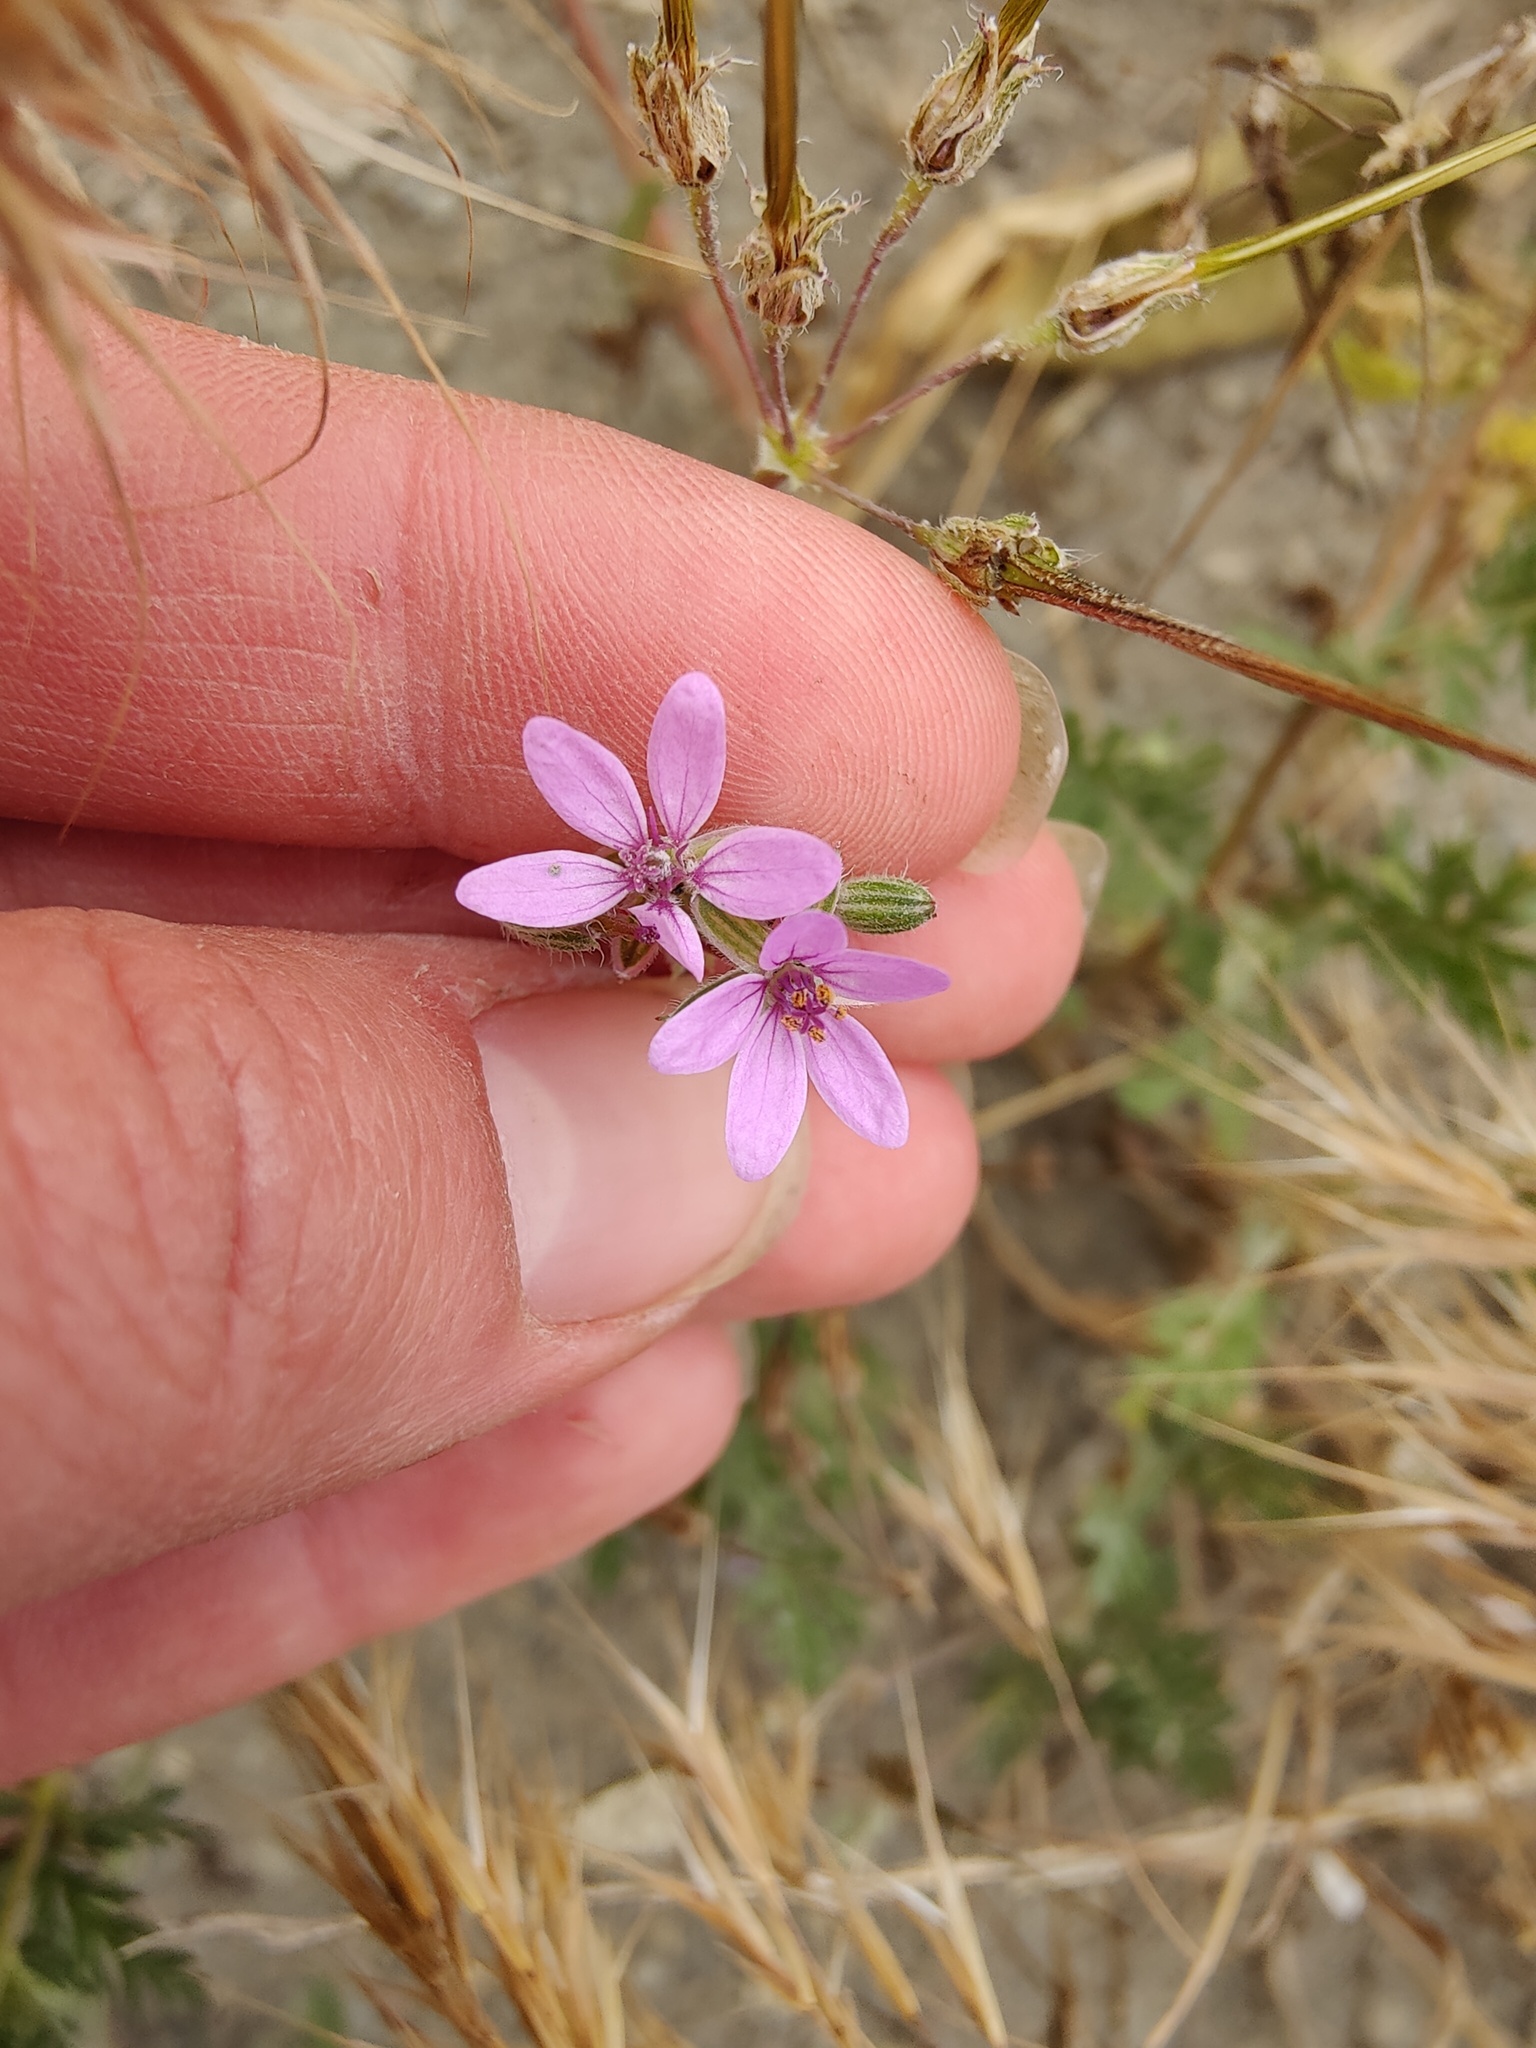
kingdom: Plantae
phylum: Tracheophyta
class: Magnoliopsida
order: Geraniales
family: Geraniaceae
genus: Erodium
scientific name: Erodium cicutarium
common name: Common stork's-bill
